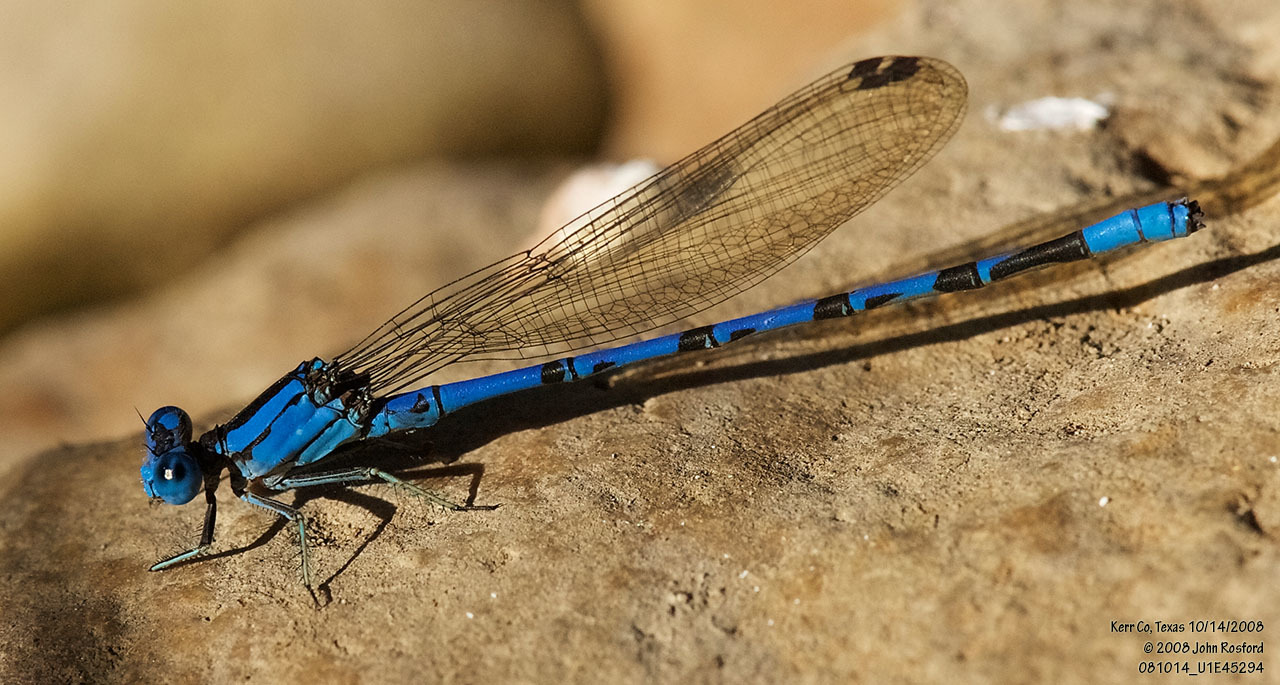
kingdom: Animalia
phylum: Arthropoda
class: Insecta
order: Odonata
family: Coenagrionidae
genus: Argia
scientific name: Argia funebris
